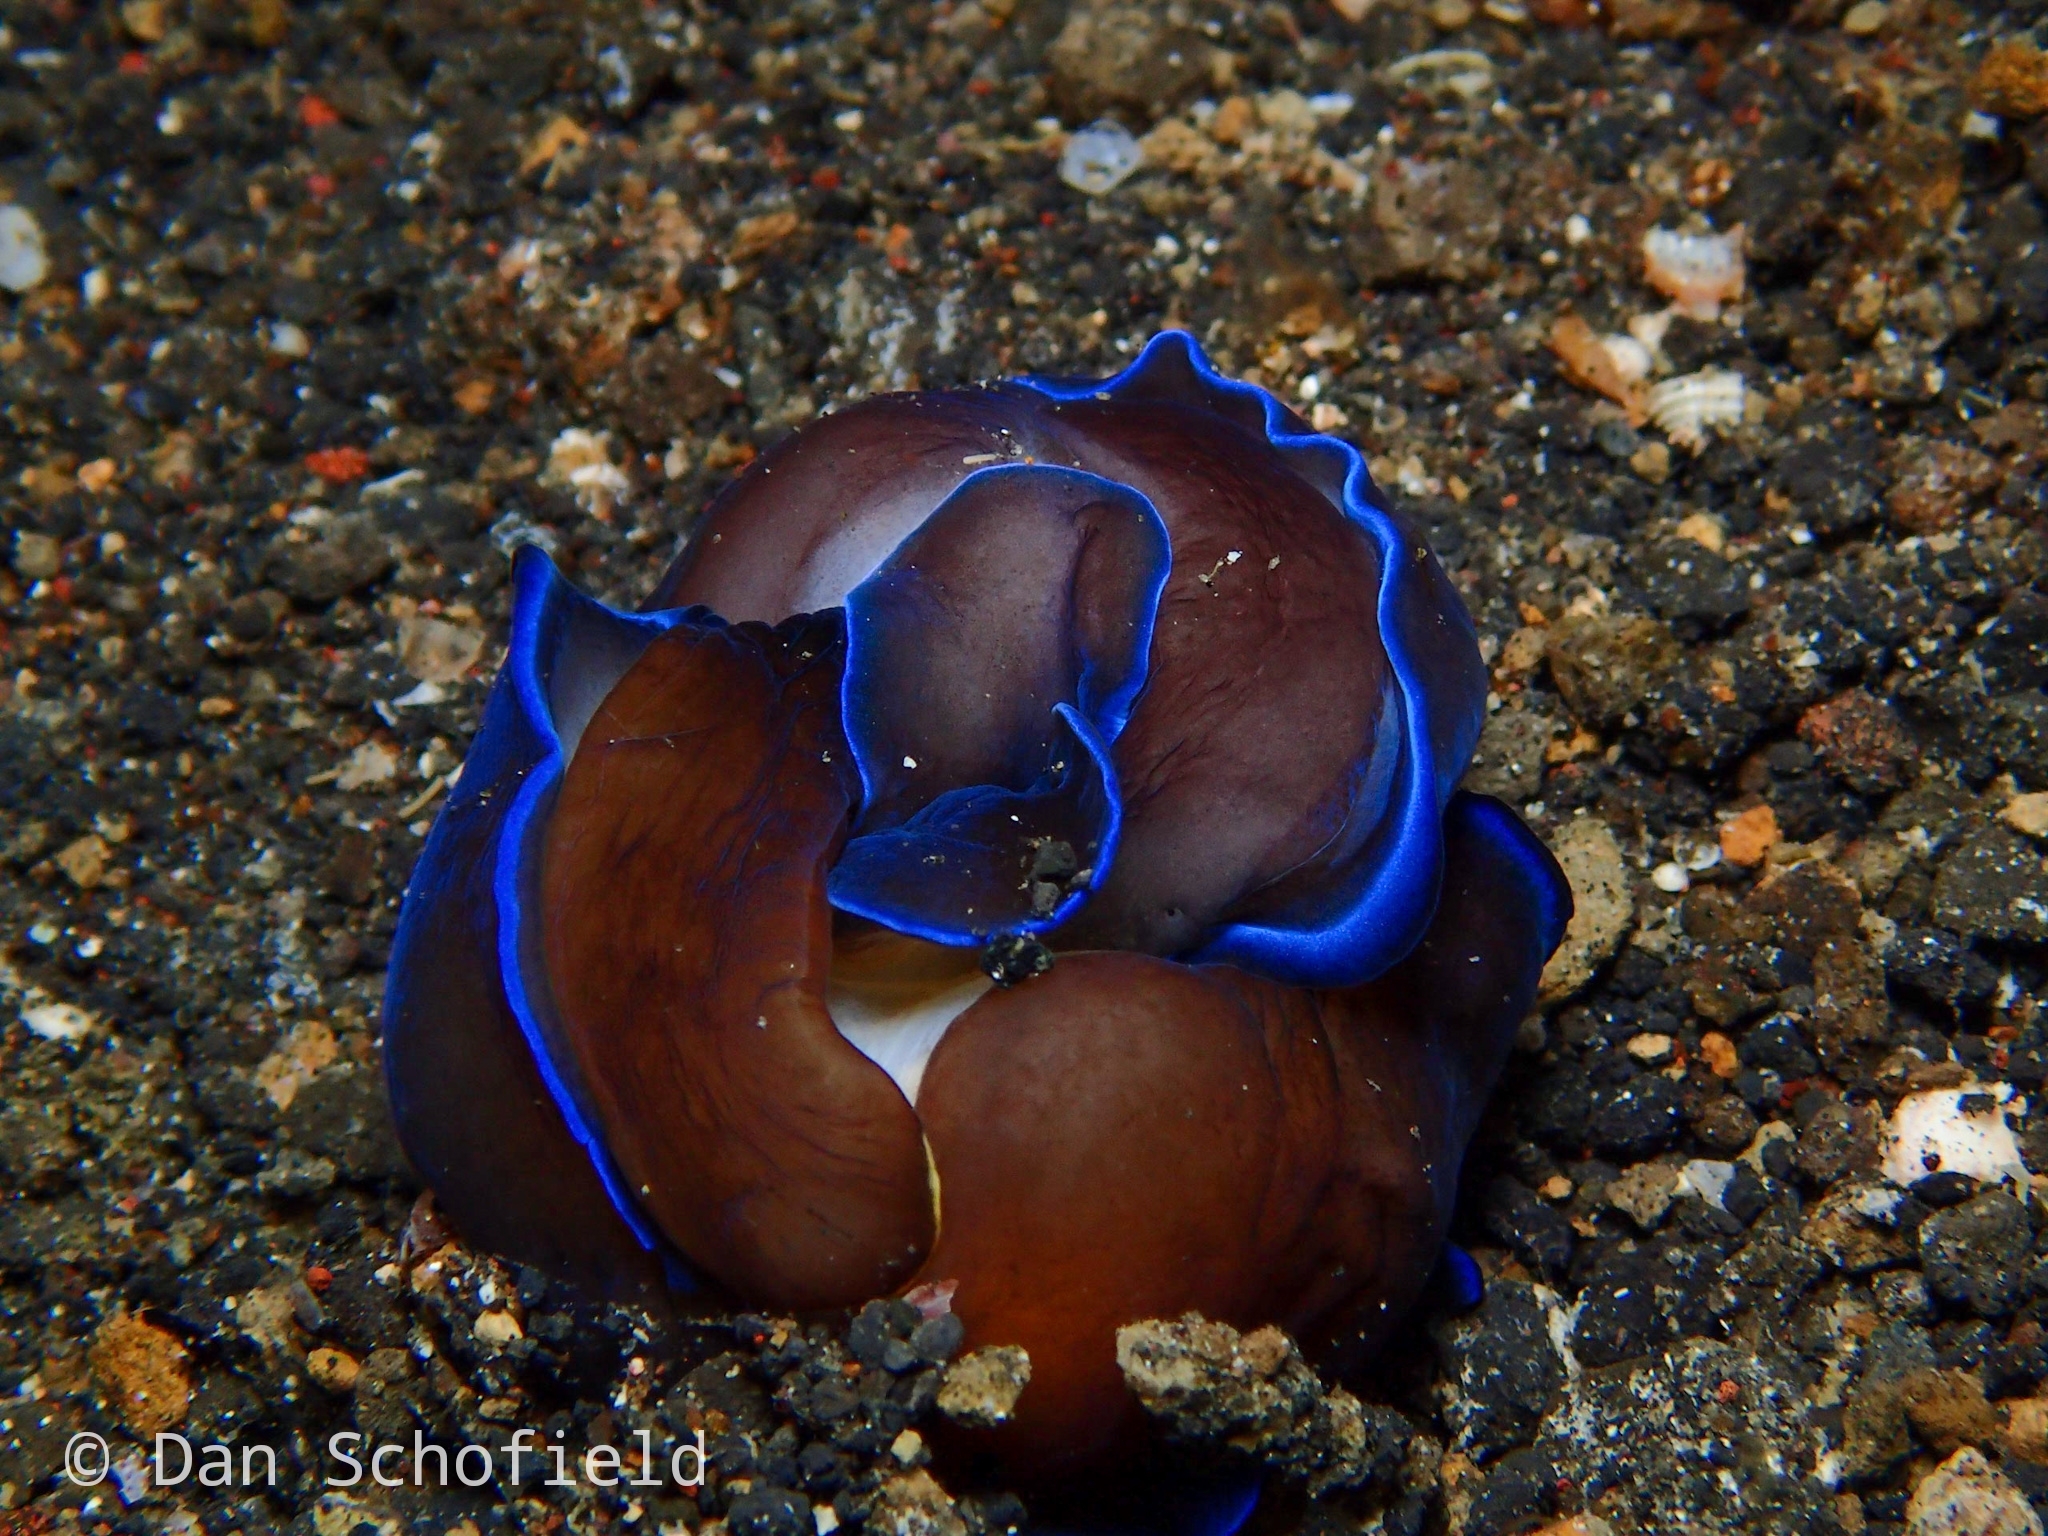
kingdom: Animalia
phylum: Mollusca
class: Gastropoda
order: Cephalaspidea
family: Aglajidae
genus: Tubulophilinopsis
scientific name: Tubulophilinopsis gardineri
